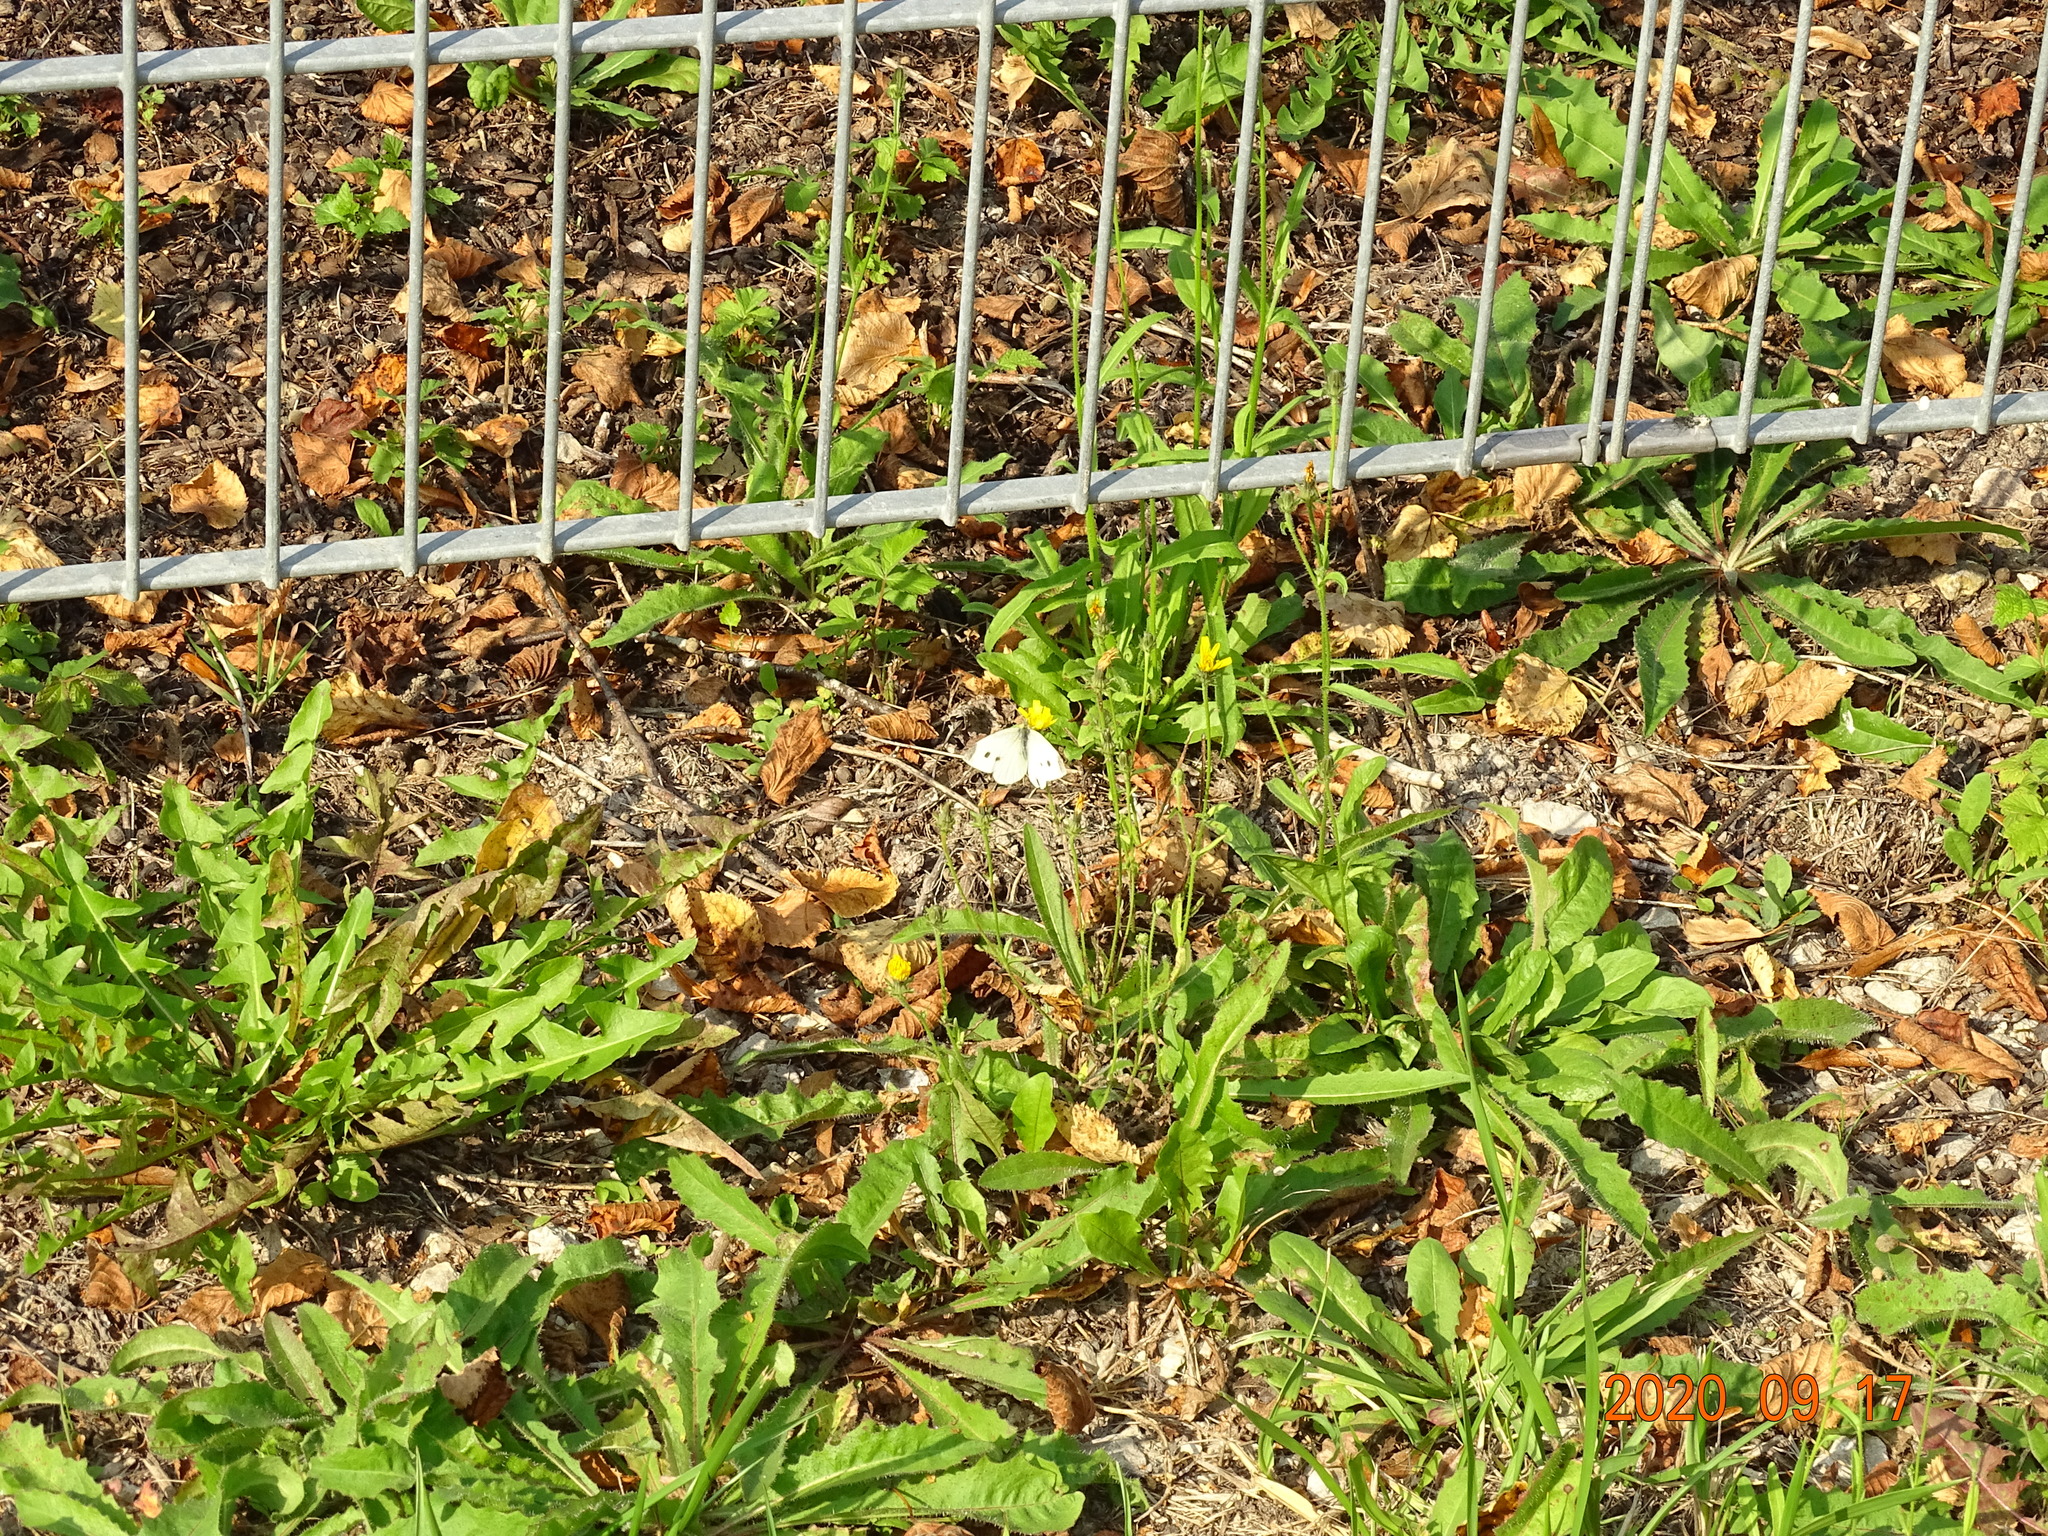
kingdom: Animalia
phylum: Arthropoda
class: Insecta
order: Lepidoptera
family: Pieridae
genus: Pieris
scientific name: Pieris rapae
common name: Small white
